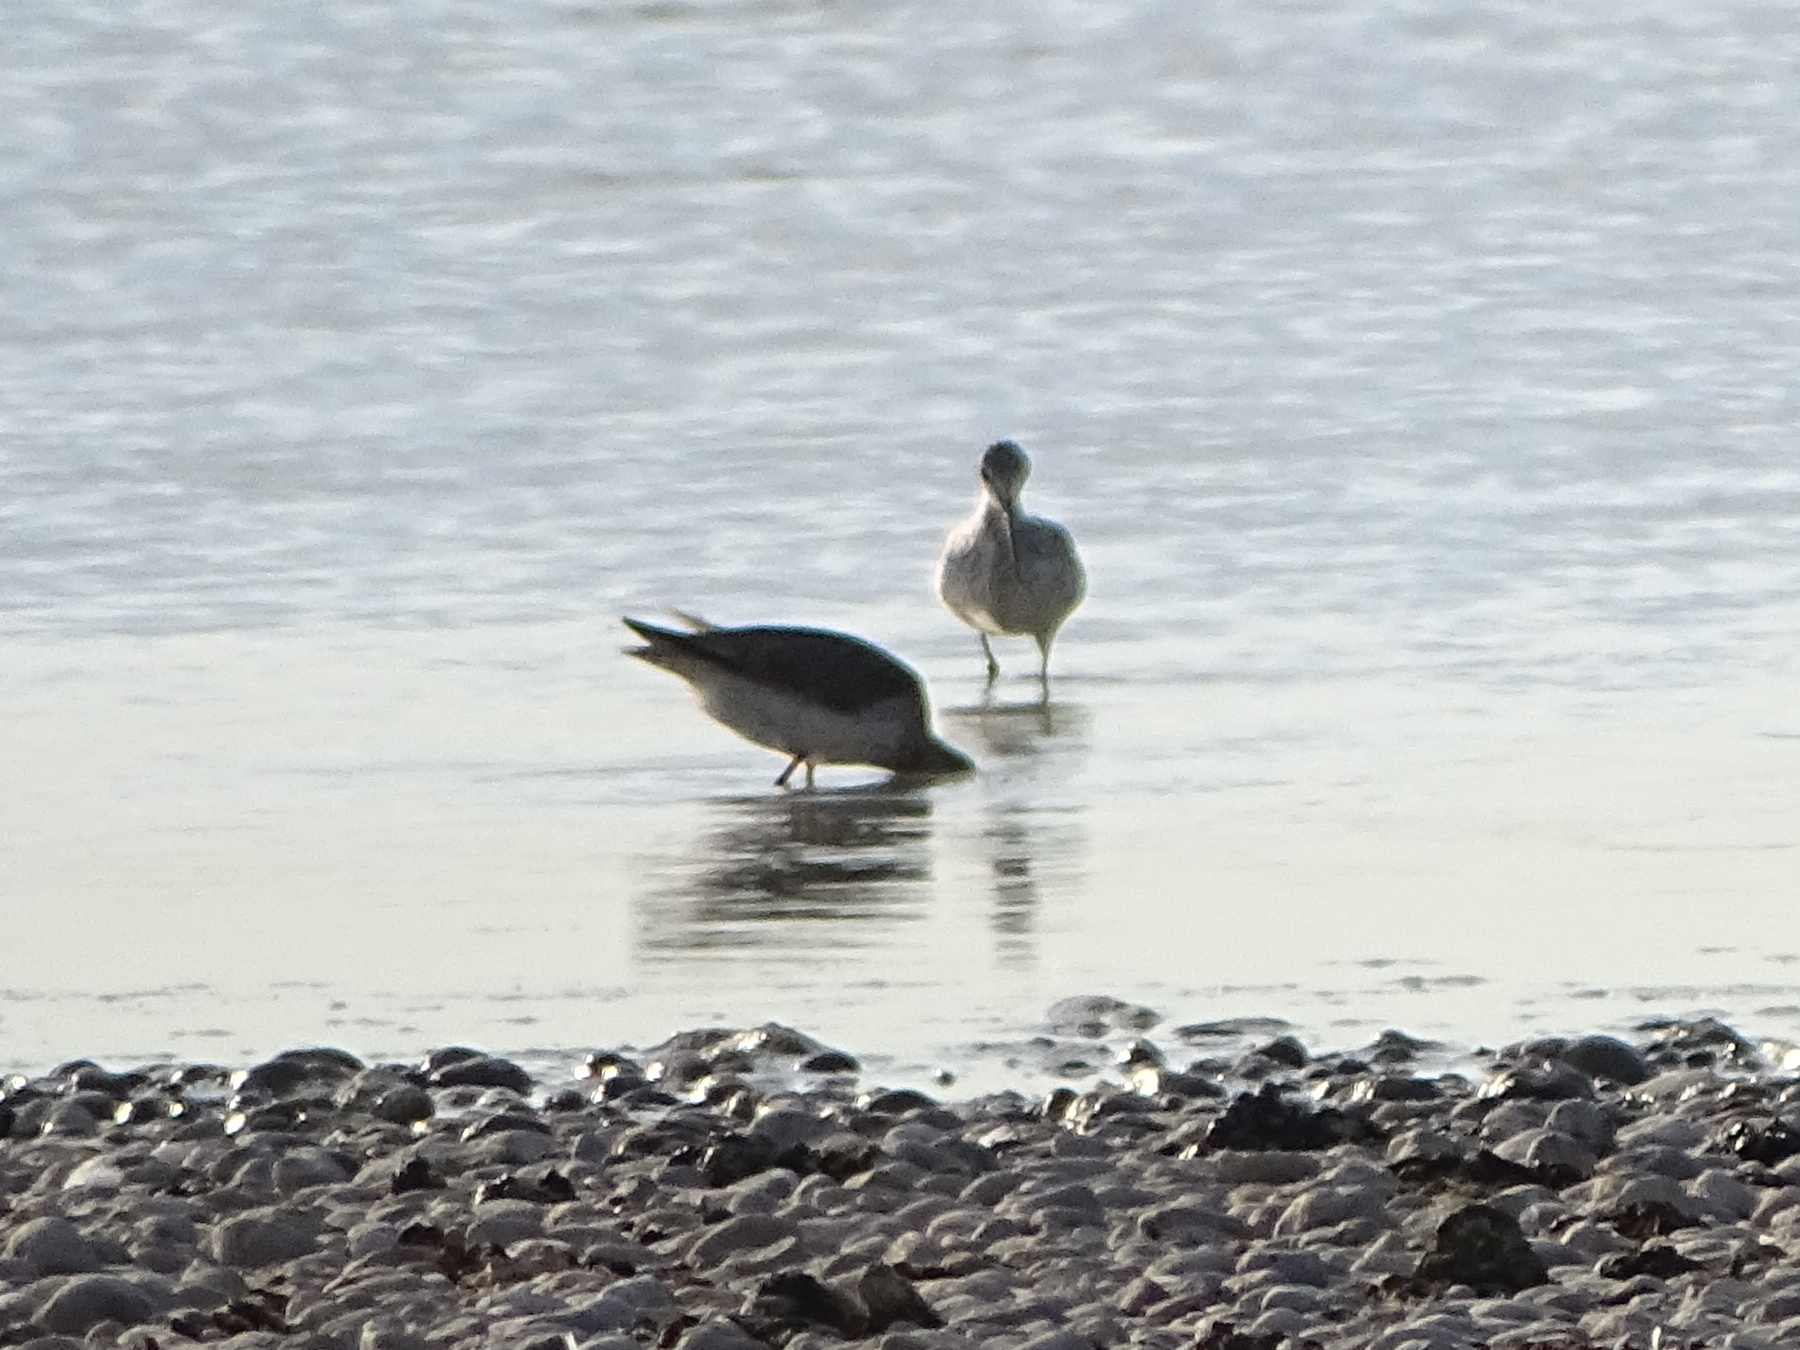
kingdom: Animalia
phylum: Chordata
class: Aves
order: Charadriiformes
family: Scolopacidae
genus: Tringa
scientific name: Tringa nebularia
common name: Common greenshank
